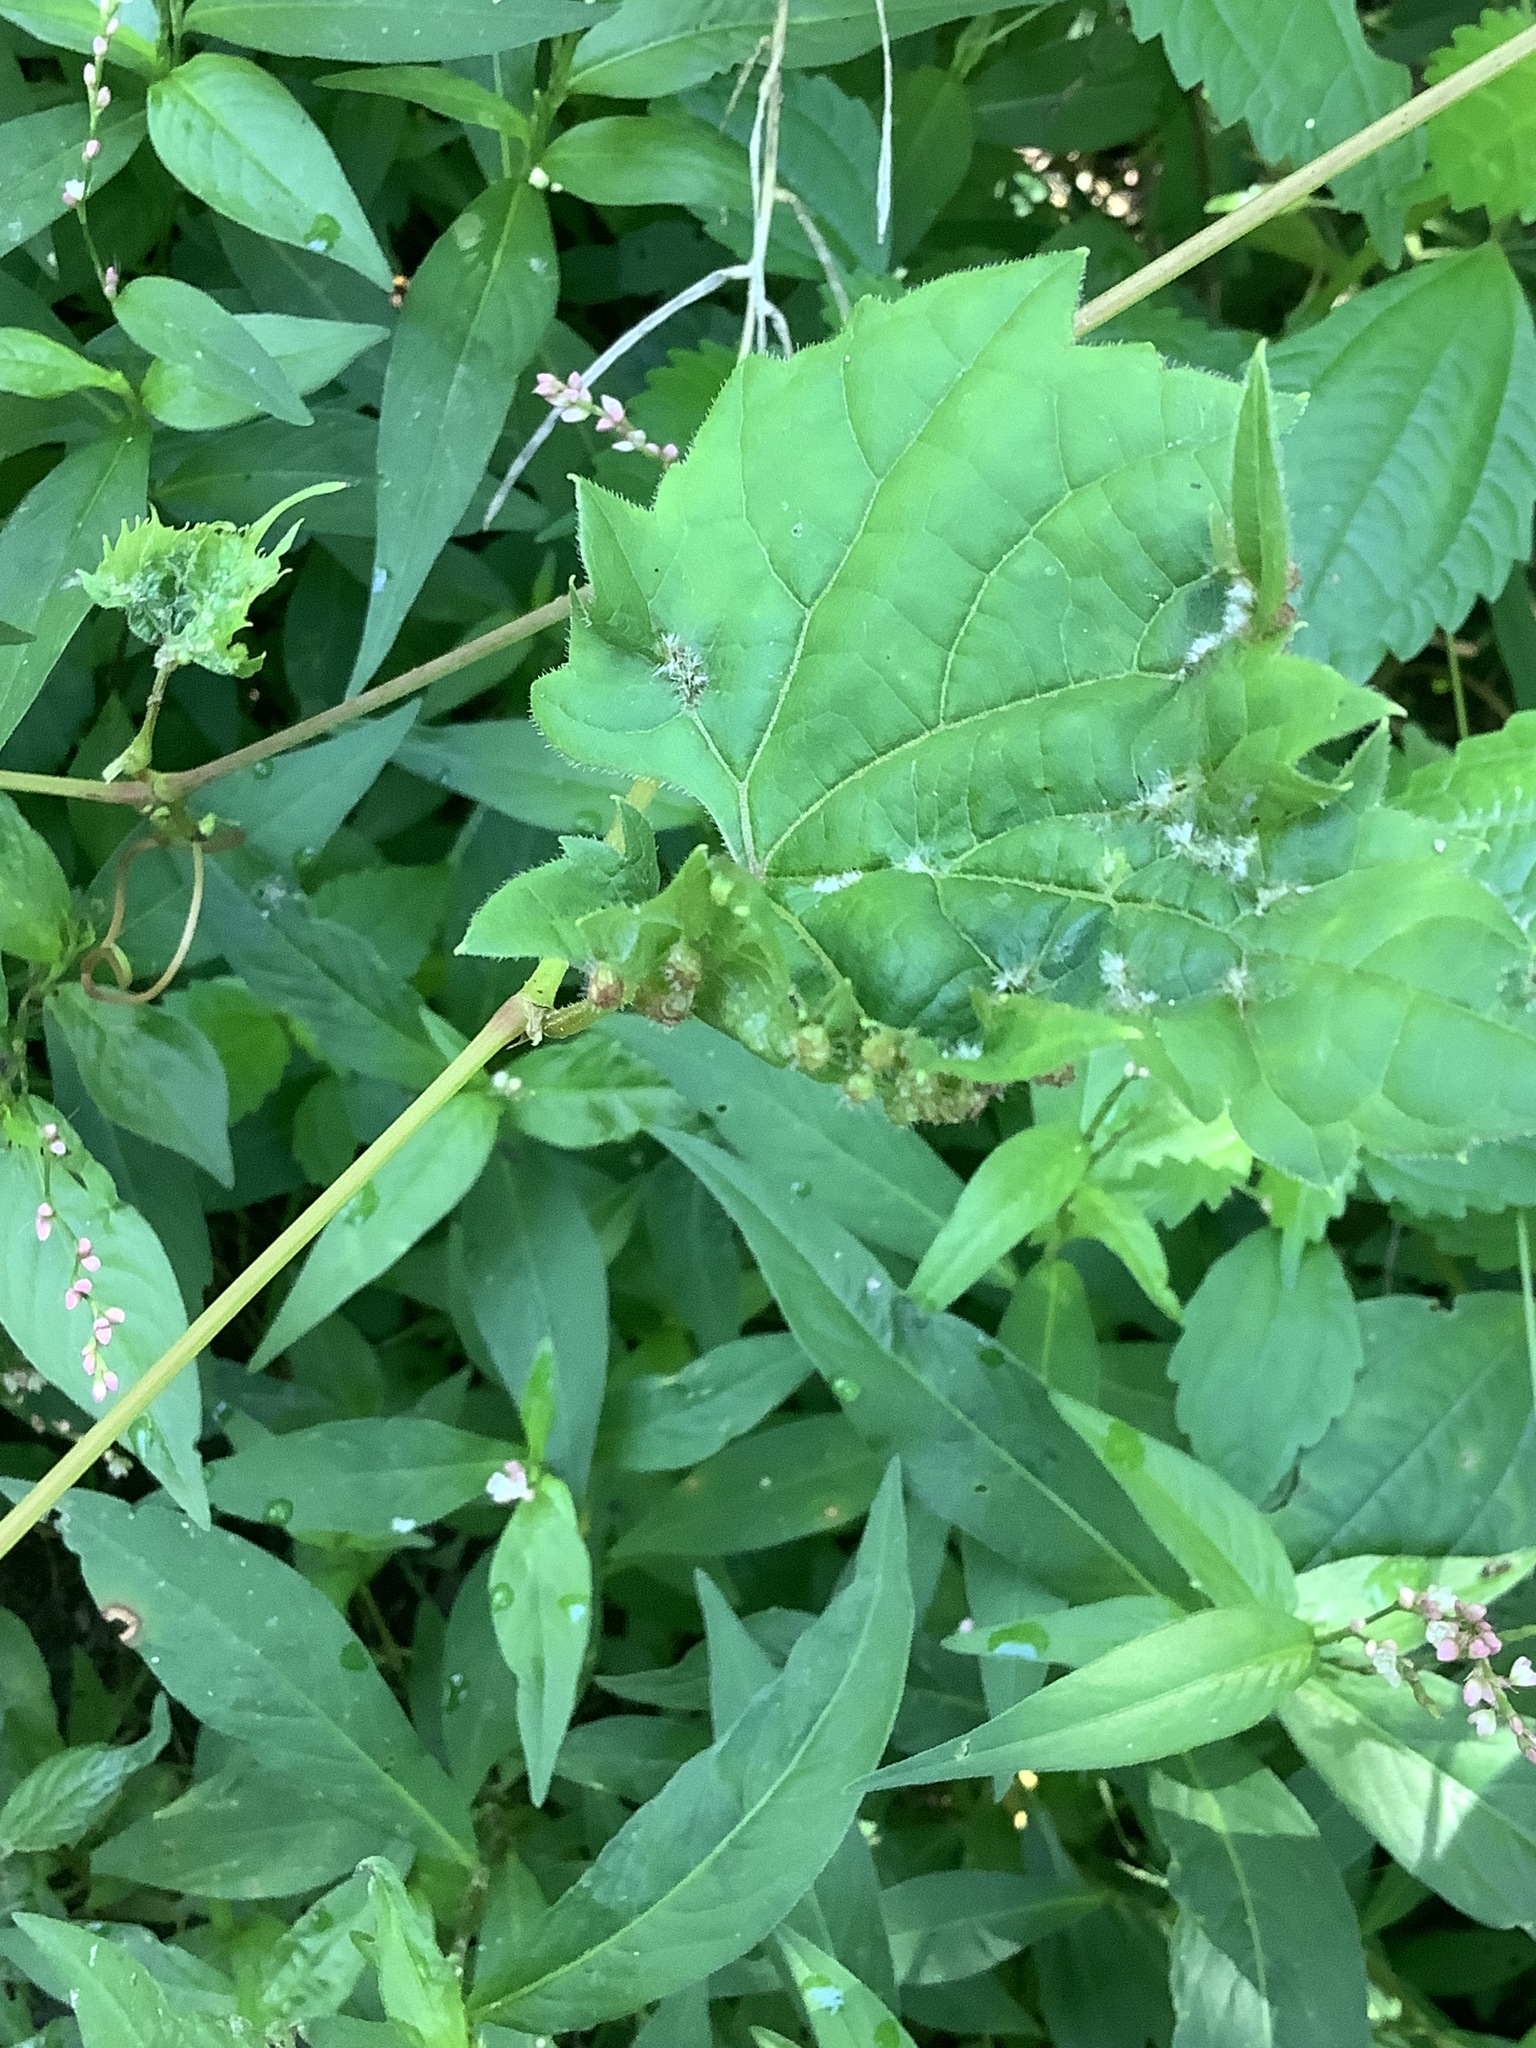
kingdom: Animalia
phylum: Arthropoda
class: Insecta
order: Hemiptera
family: Phylloxeridae
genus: Daktulosphaira
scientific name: Daktulosphaira vitifoliae
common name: Grape phylloxera
